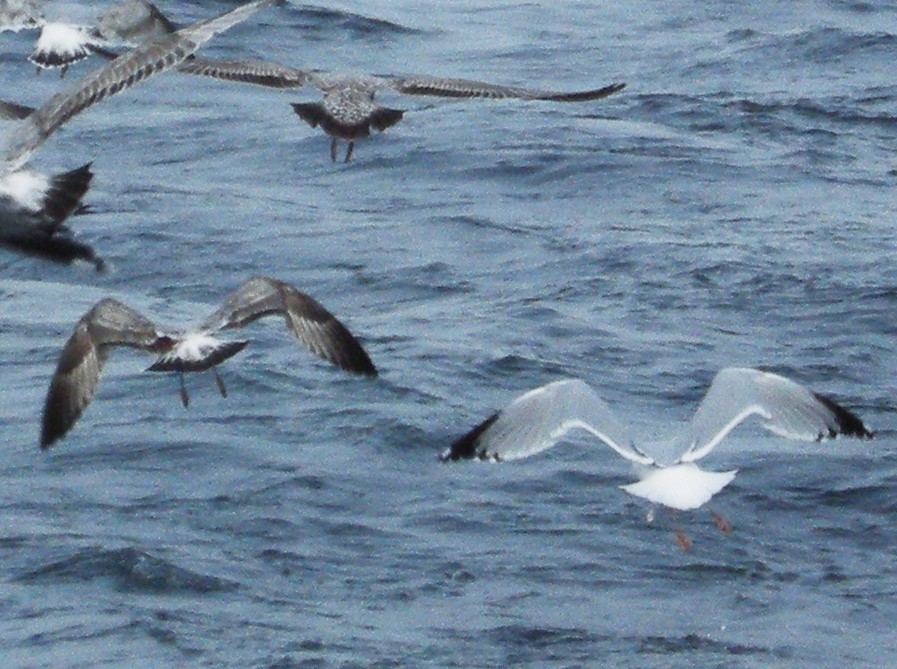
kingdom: Animalia
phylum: Chordata
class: Aves
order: Charadriiformes
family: Laridae
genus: Larus
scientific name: Larus argentatus
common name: Herring gull
